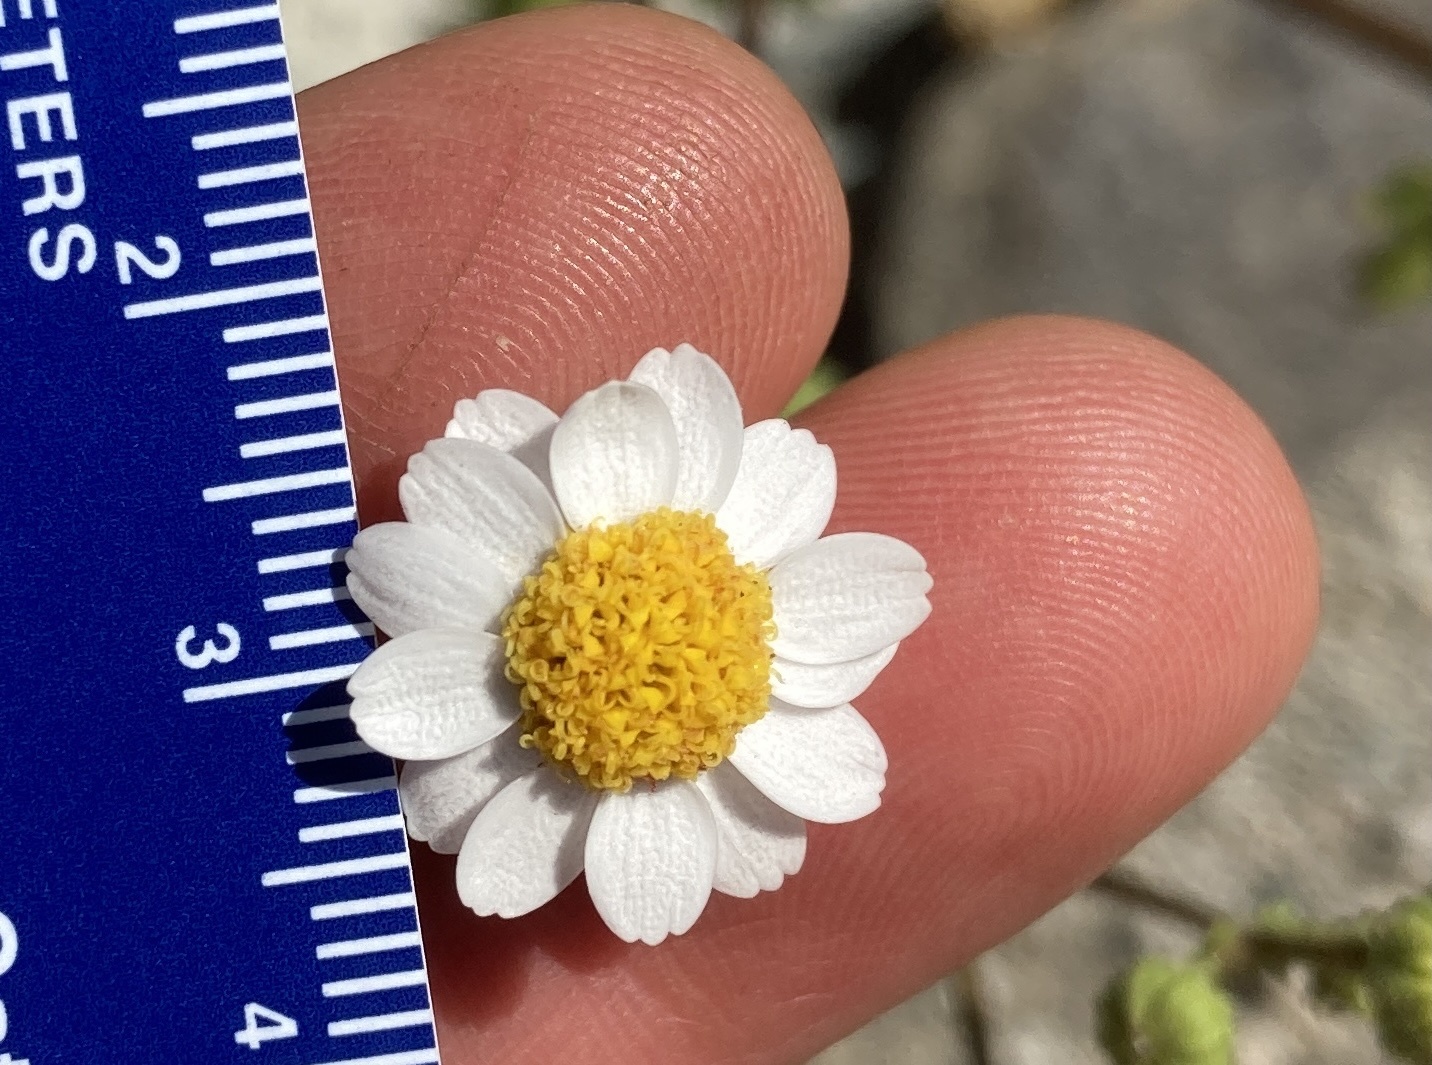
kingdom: Plantae
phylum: Tracheophyta
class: Magnoliopsida
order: Asterales
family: Asteraceae
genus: Laphamia
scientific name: Laphamia emoryi
